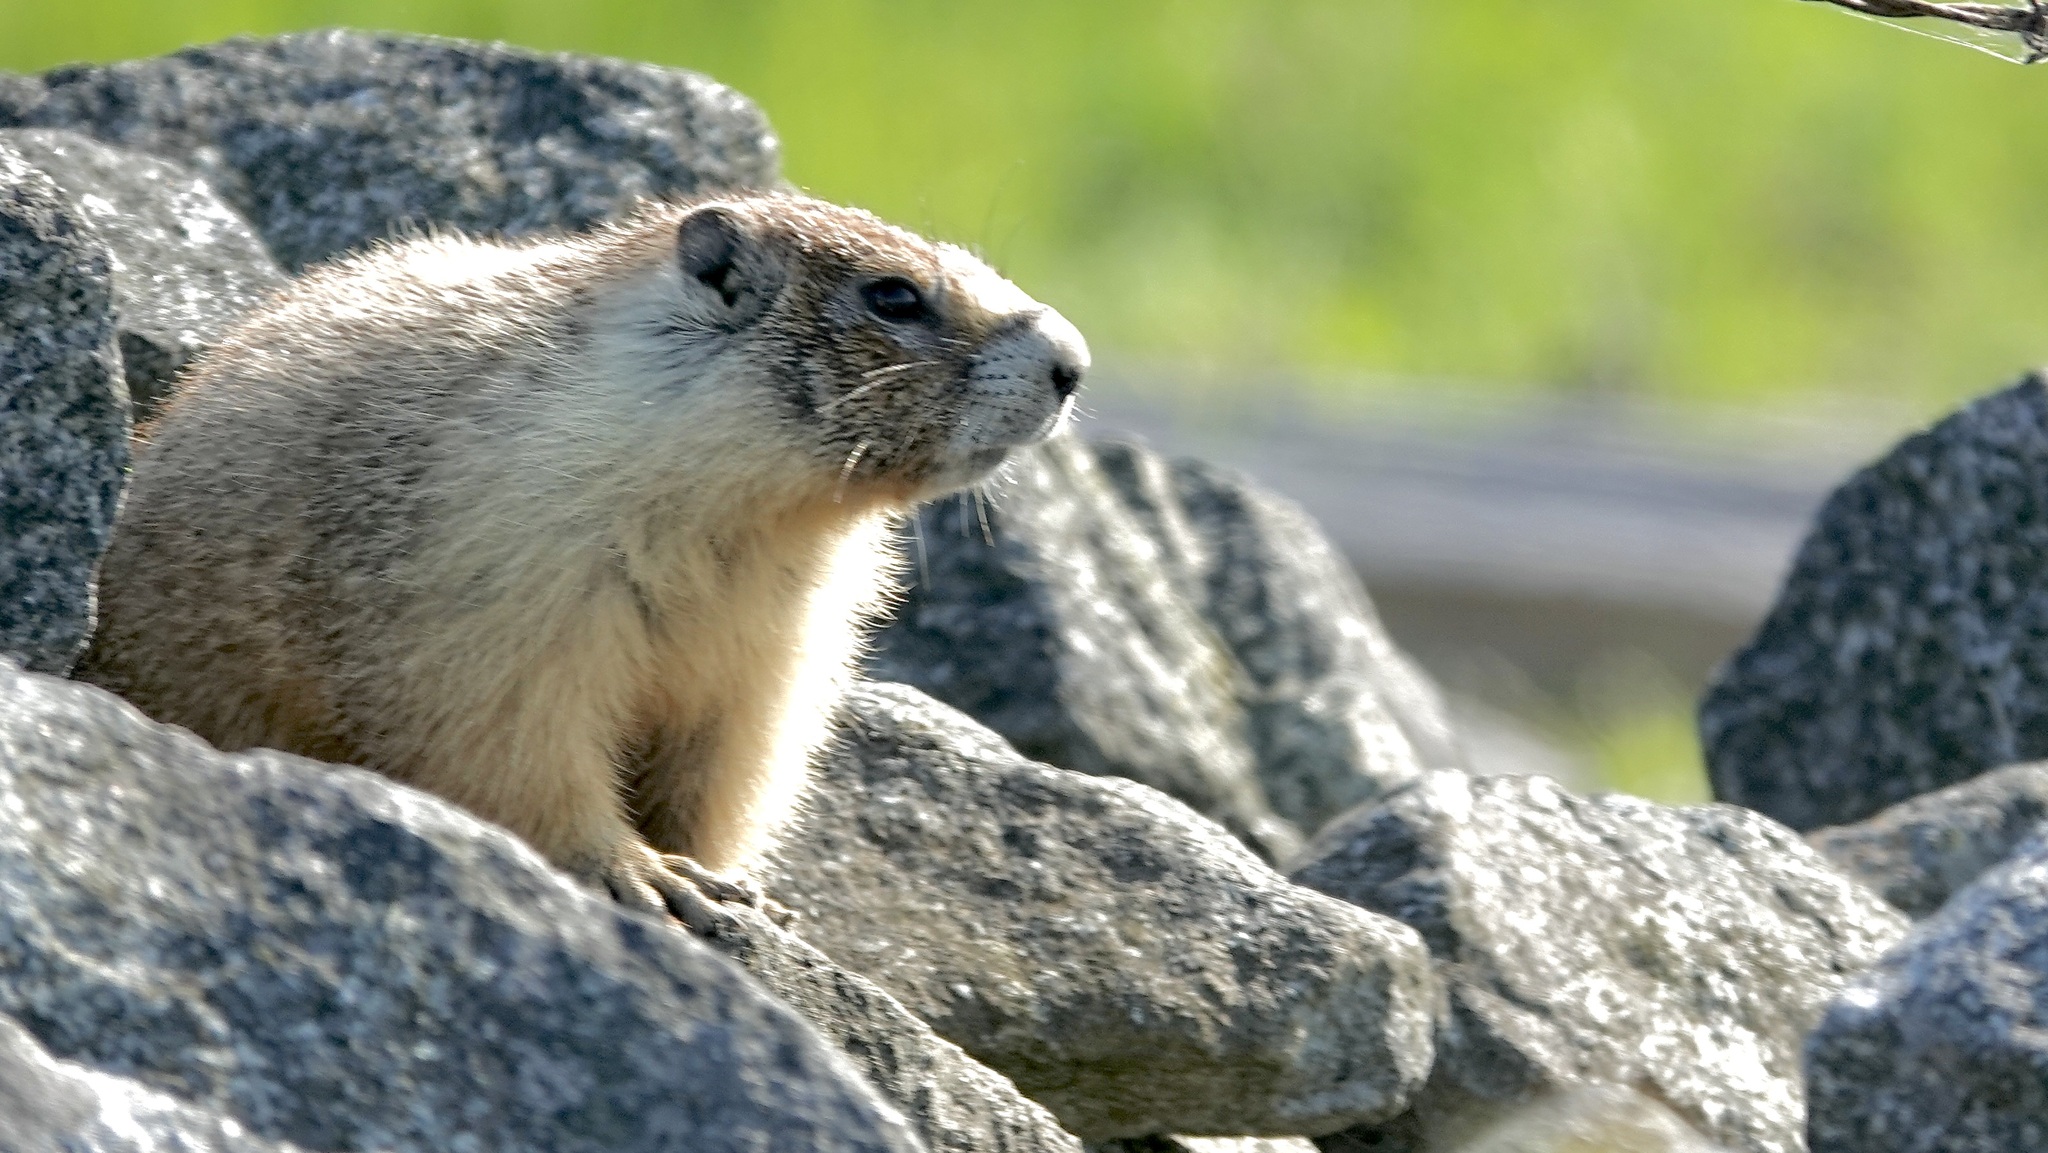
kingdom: Animalia
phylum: Chordata
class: Mammalia
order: Rodentia
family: Sciuridae
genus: Marmota
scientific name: Marmota flaviventris
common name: Yellow-bellied marmot
